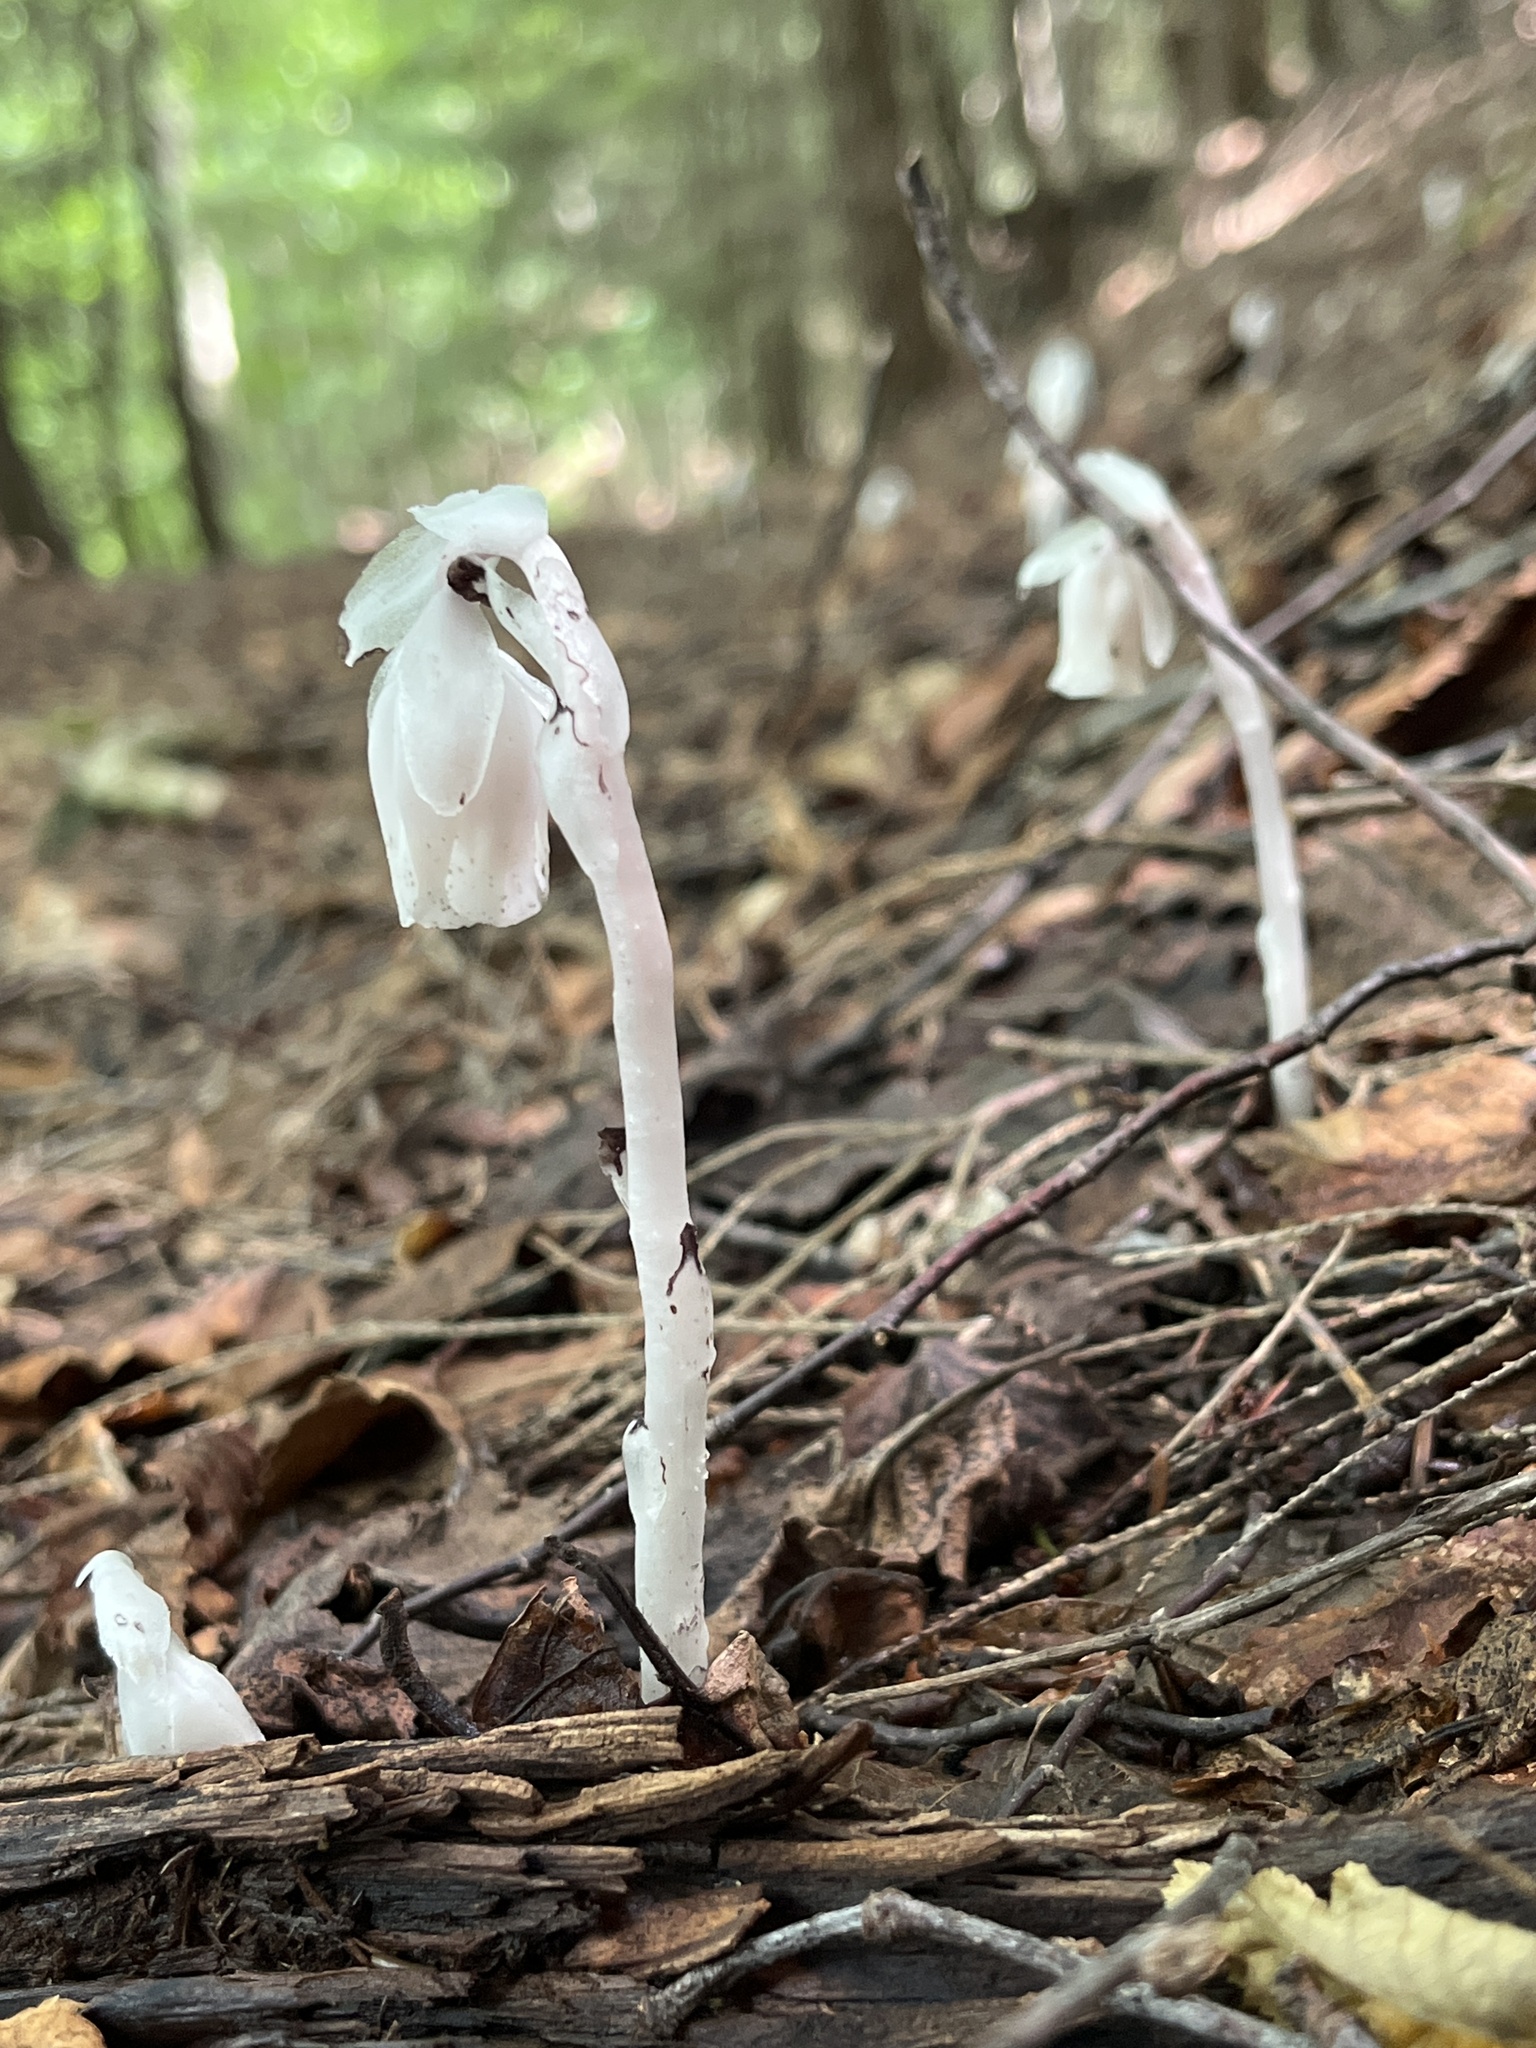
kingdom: Plantae
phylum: Tracheophyta
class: Magnoliopsida
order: Ericales
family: Ericaceae
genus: Monotropa
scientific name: Monotropa uniflora
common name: Convulsion root
